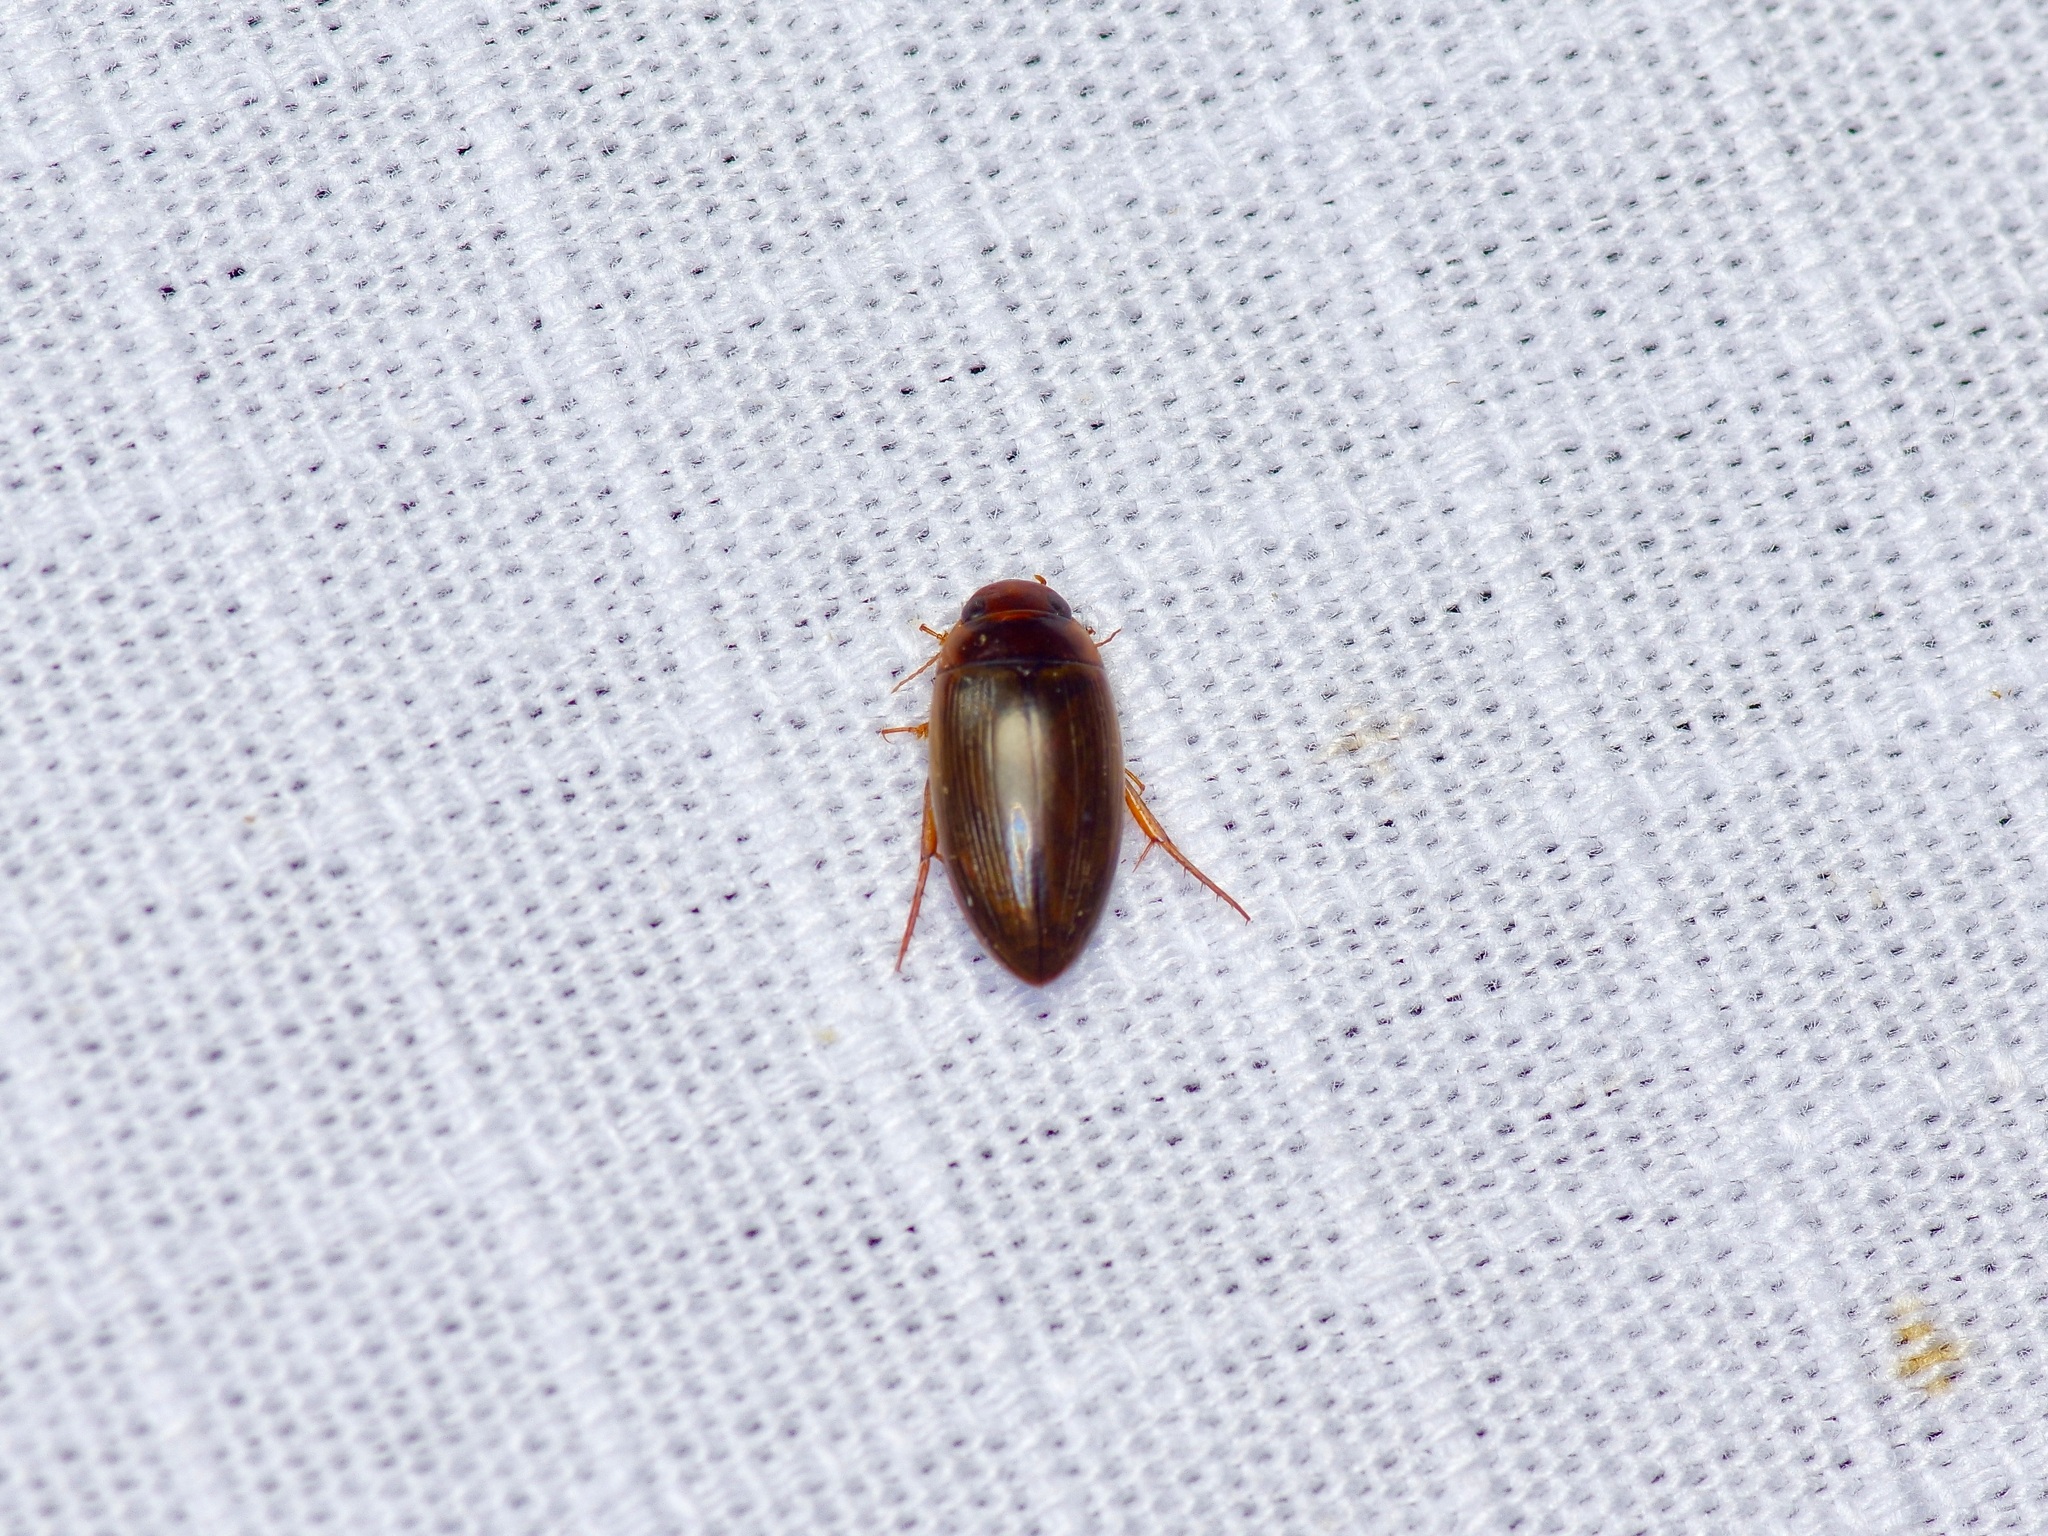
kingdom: Animalia
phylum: Arthropoda
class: Insecta
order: Coleoptera
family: Dytiscidae
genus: Copelatus
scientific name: Copelatus chevrolati
